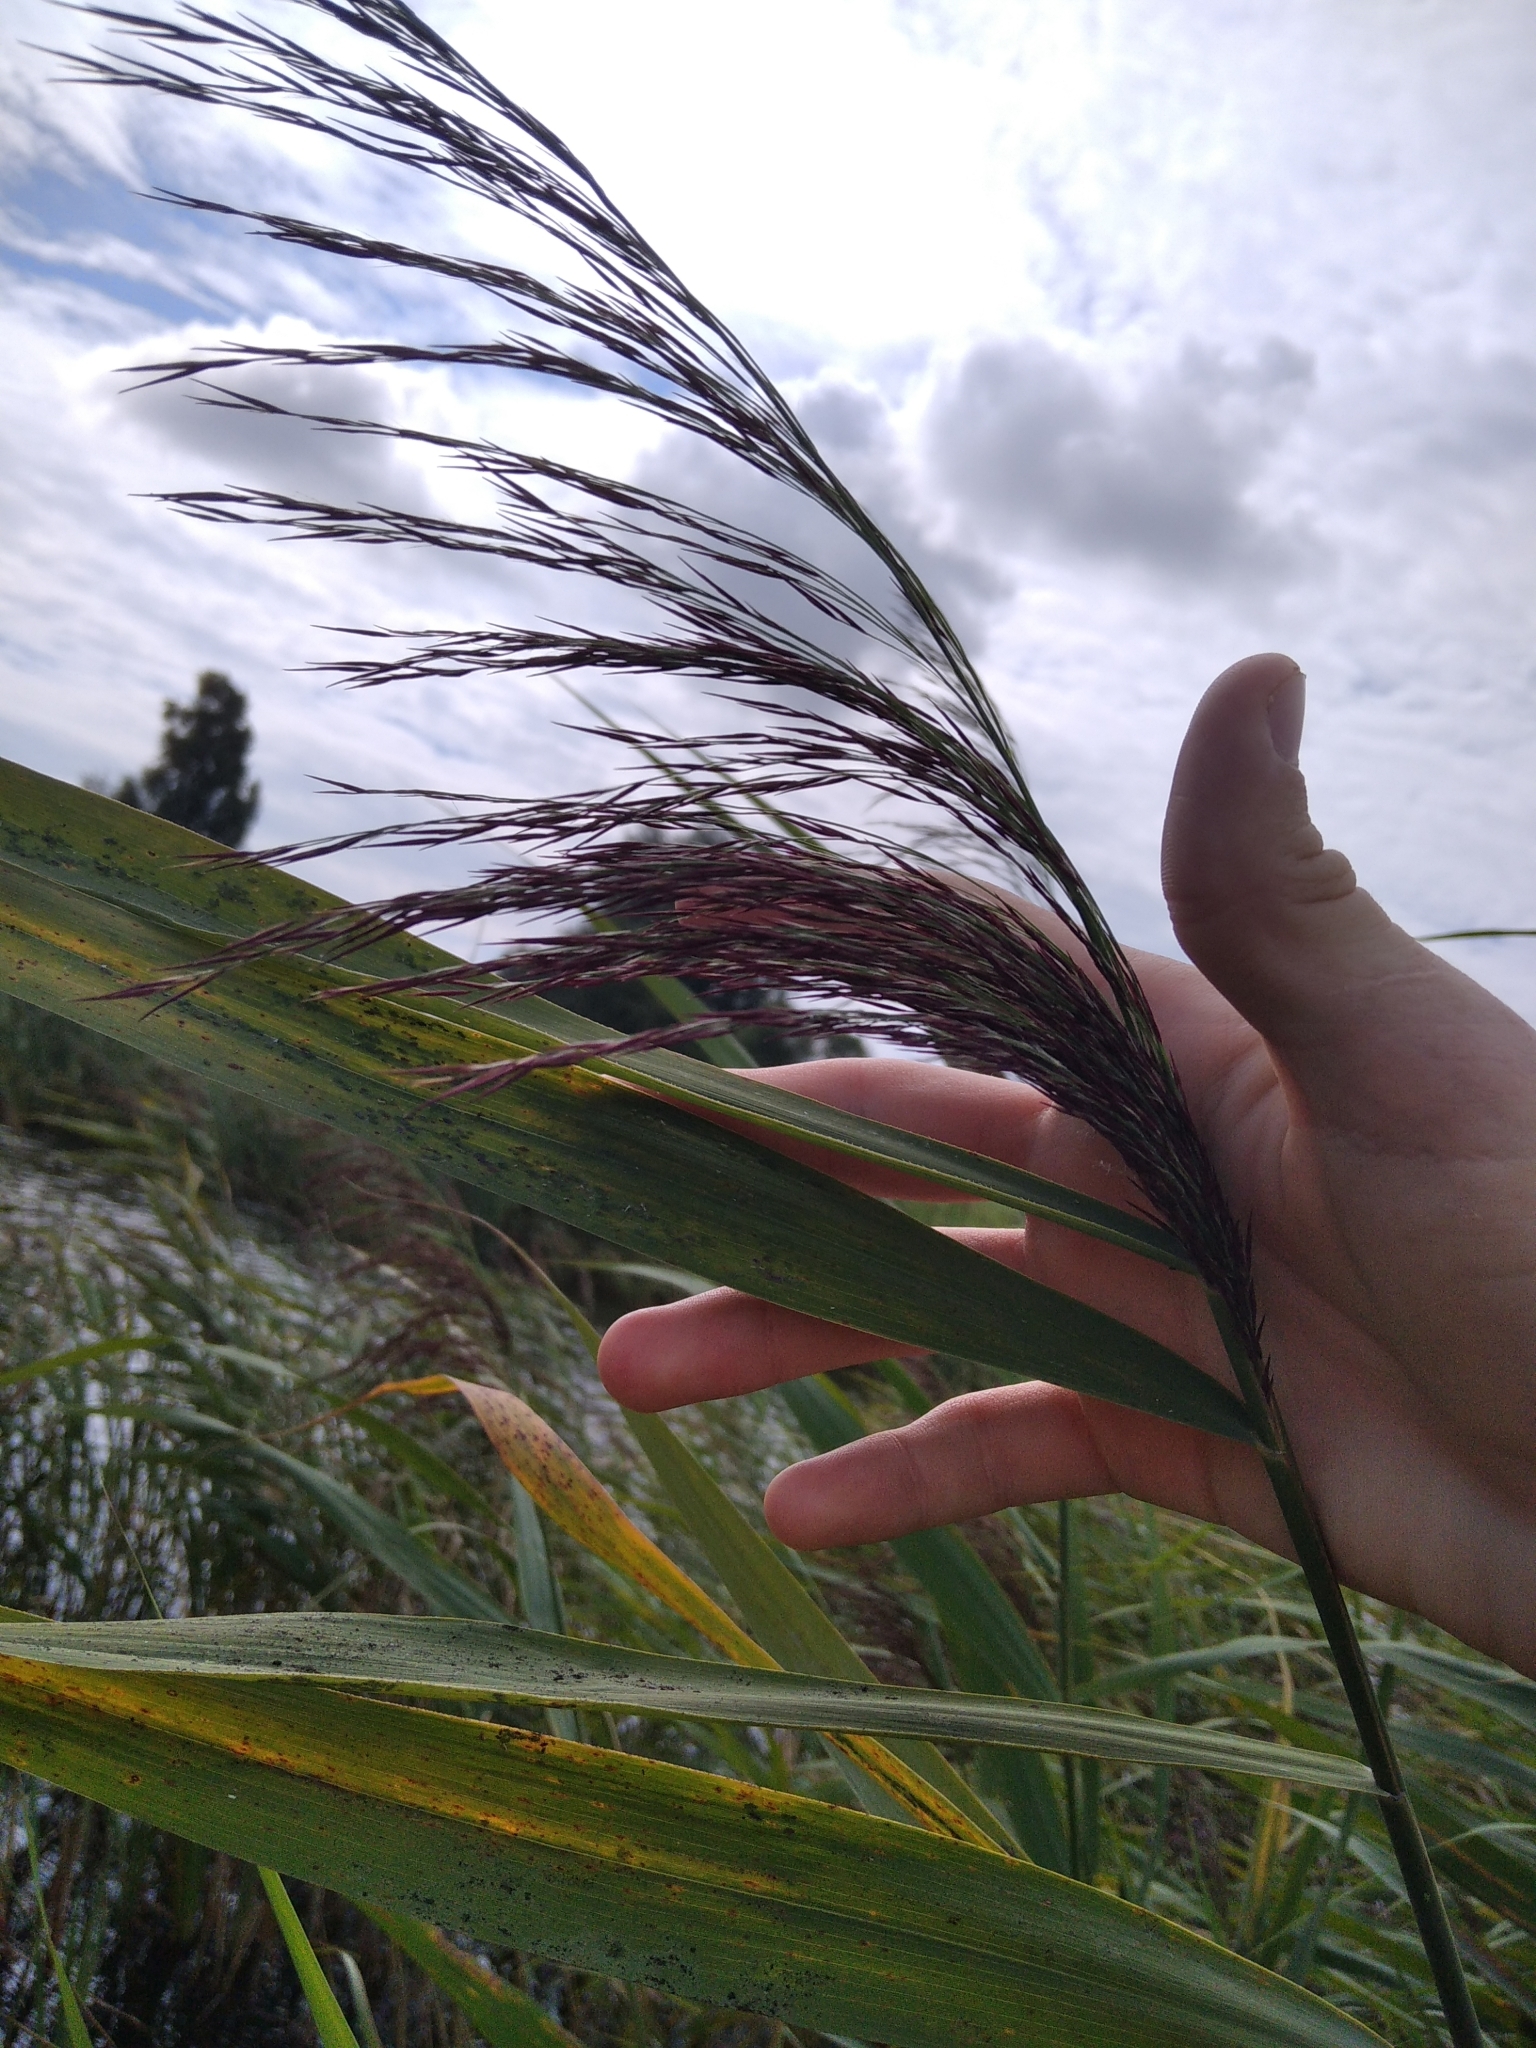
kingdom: Plantae
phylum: Tracheophyta
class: Liliopsida
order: Poales
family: Poaceae
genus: Phragmites
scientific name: Phragmites australis
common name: Common reed
